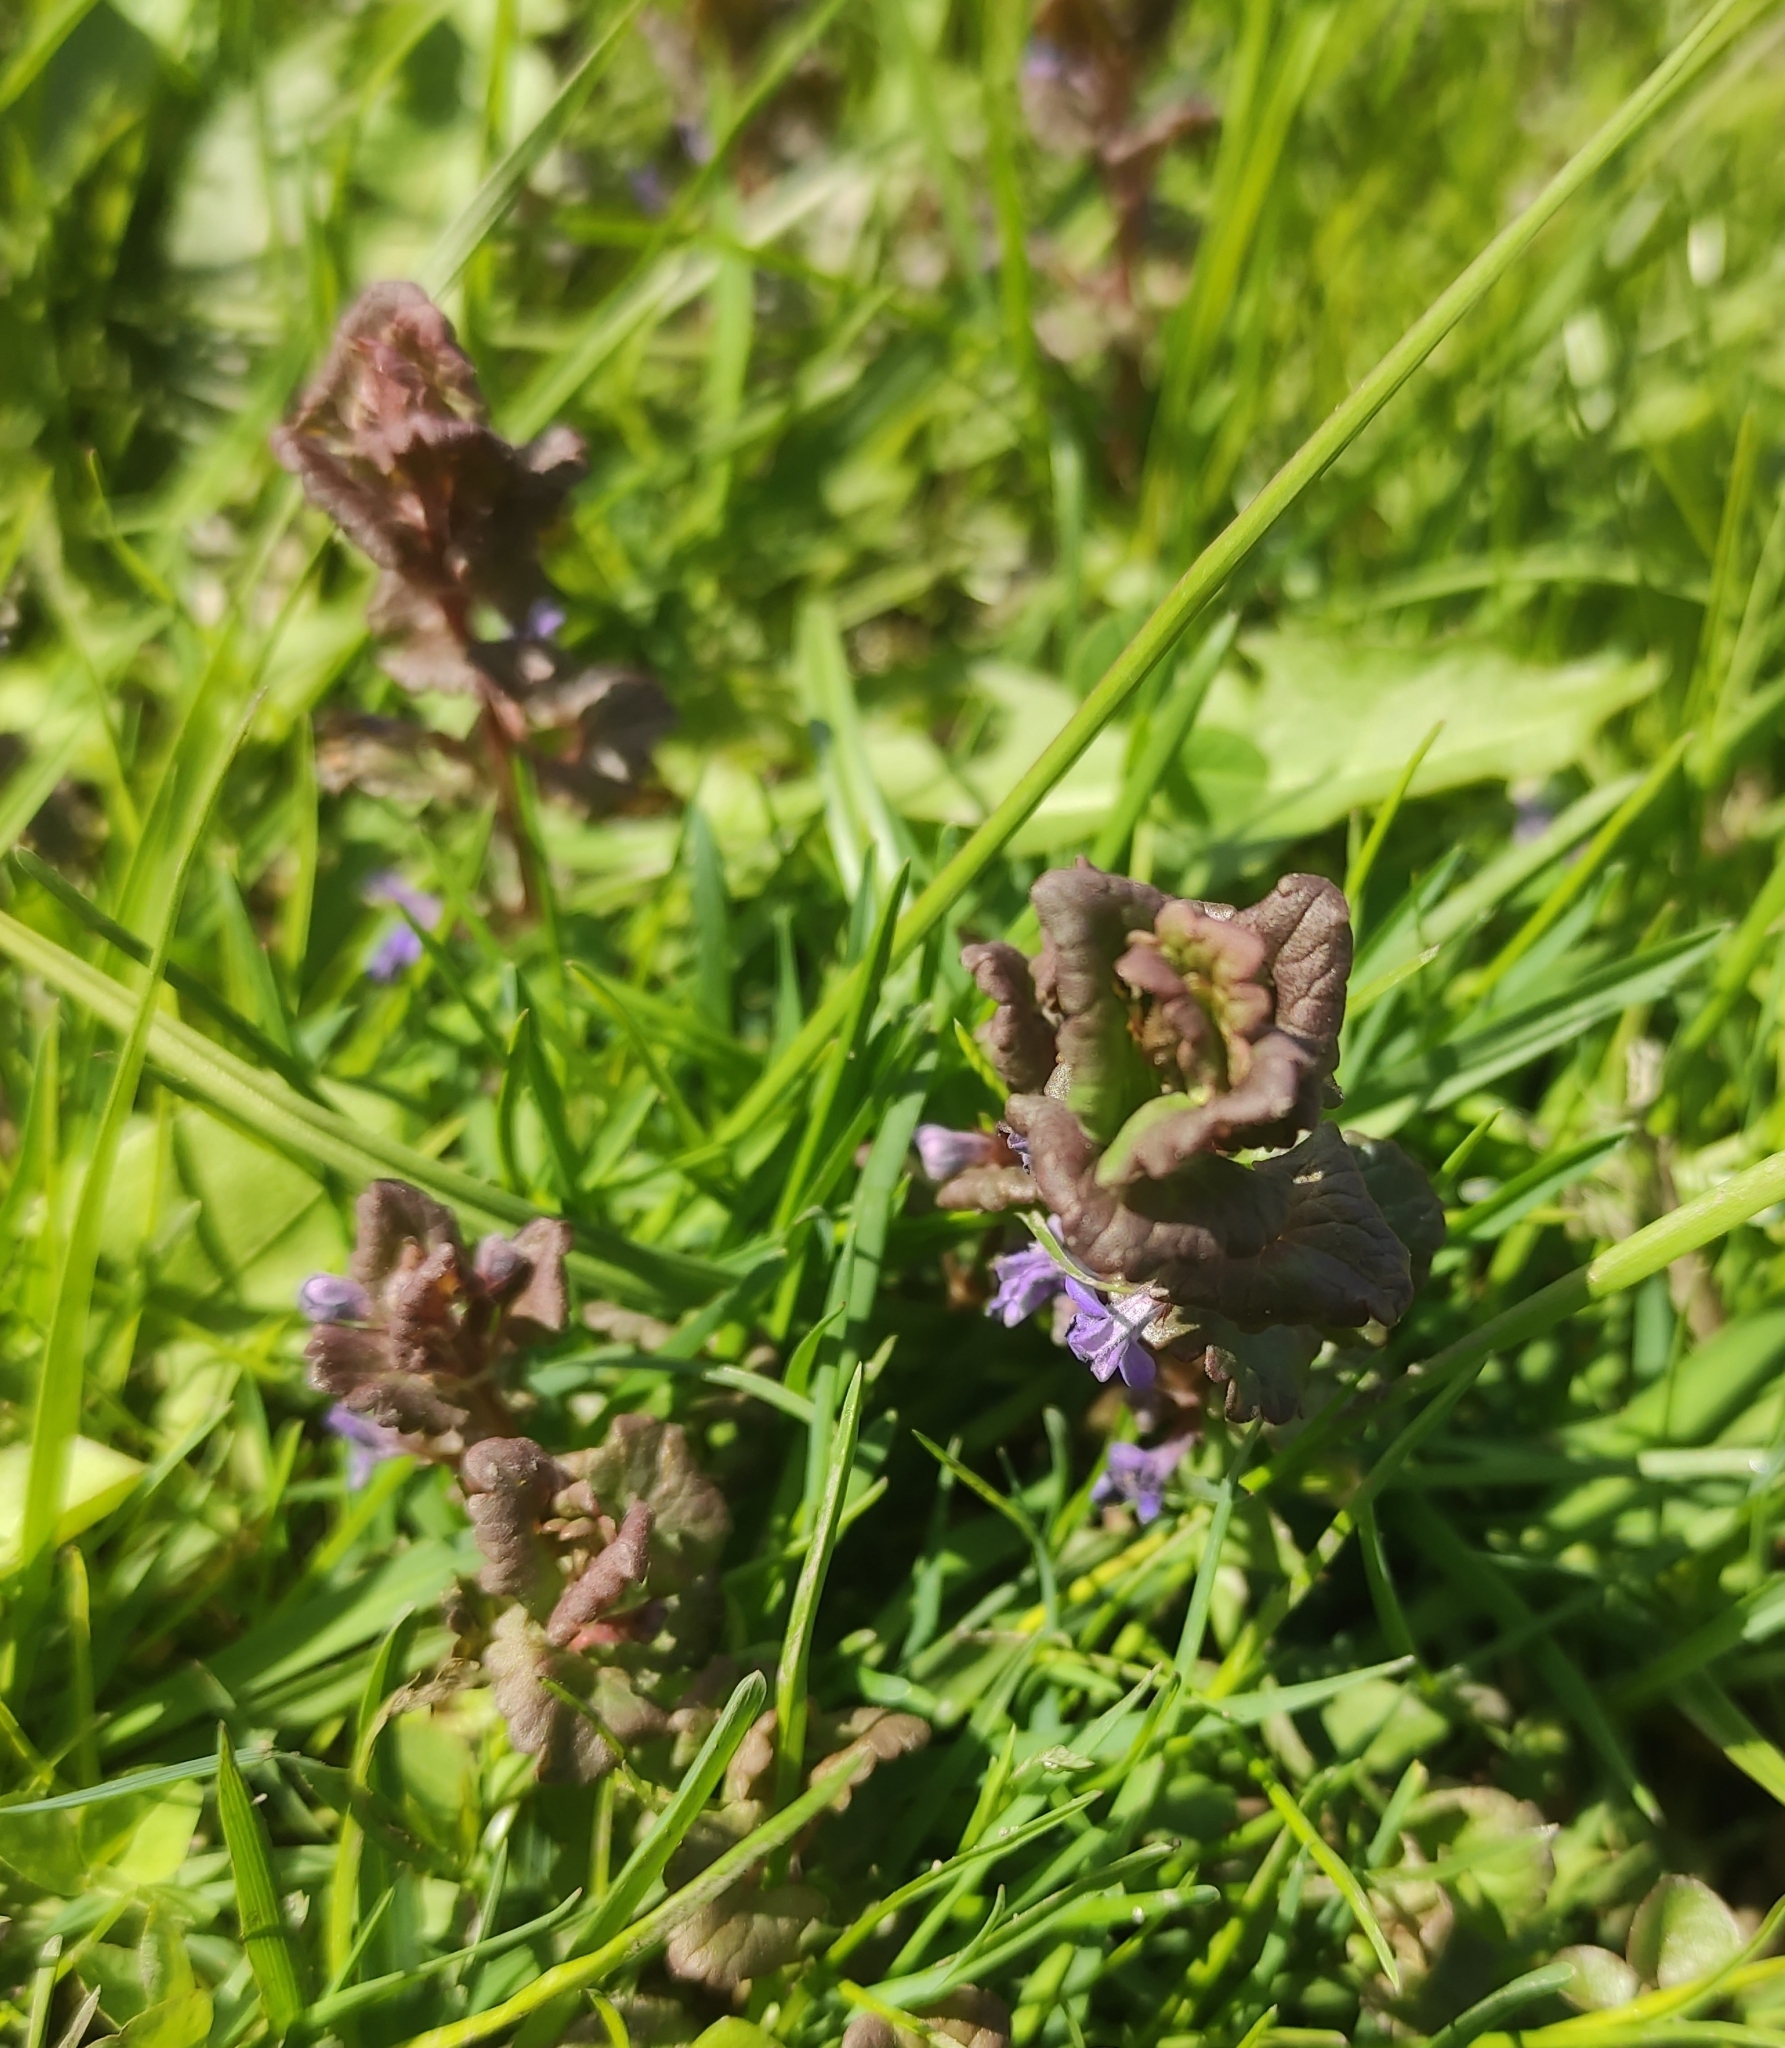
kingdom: Plantae
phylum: Tracheophyta
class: Magnoliopsida
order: Lamiales
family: Lamiaceae
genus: Glechoma
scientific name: Glechoma hederacea
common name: Ground ivy
